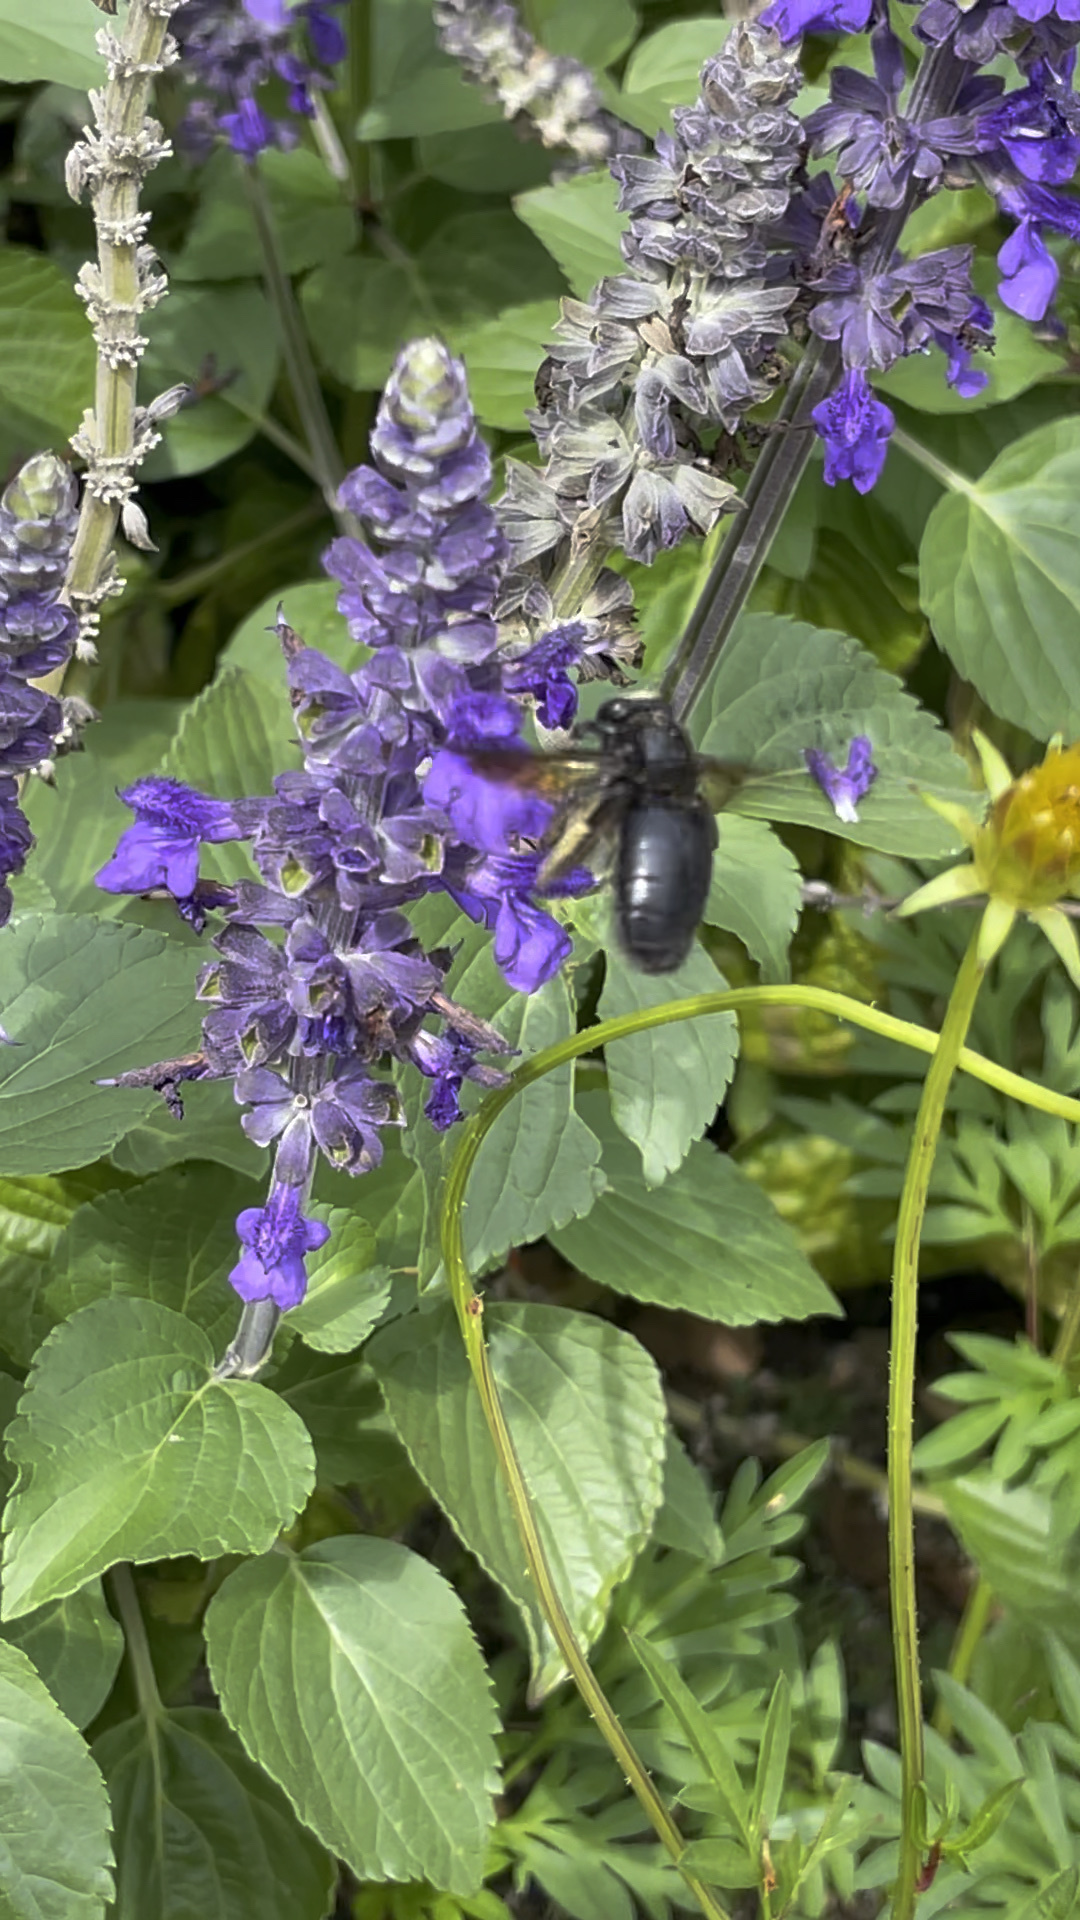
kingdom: Animalia
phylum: Arthropoda
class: Insecta
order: Hymenoptera
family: Apidae
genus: Xylocopa
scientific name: Xylocopa tranquebarorum
